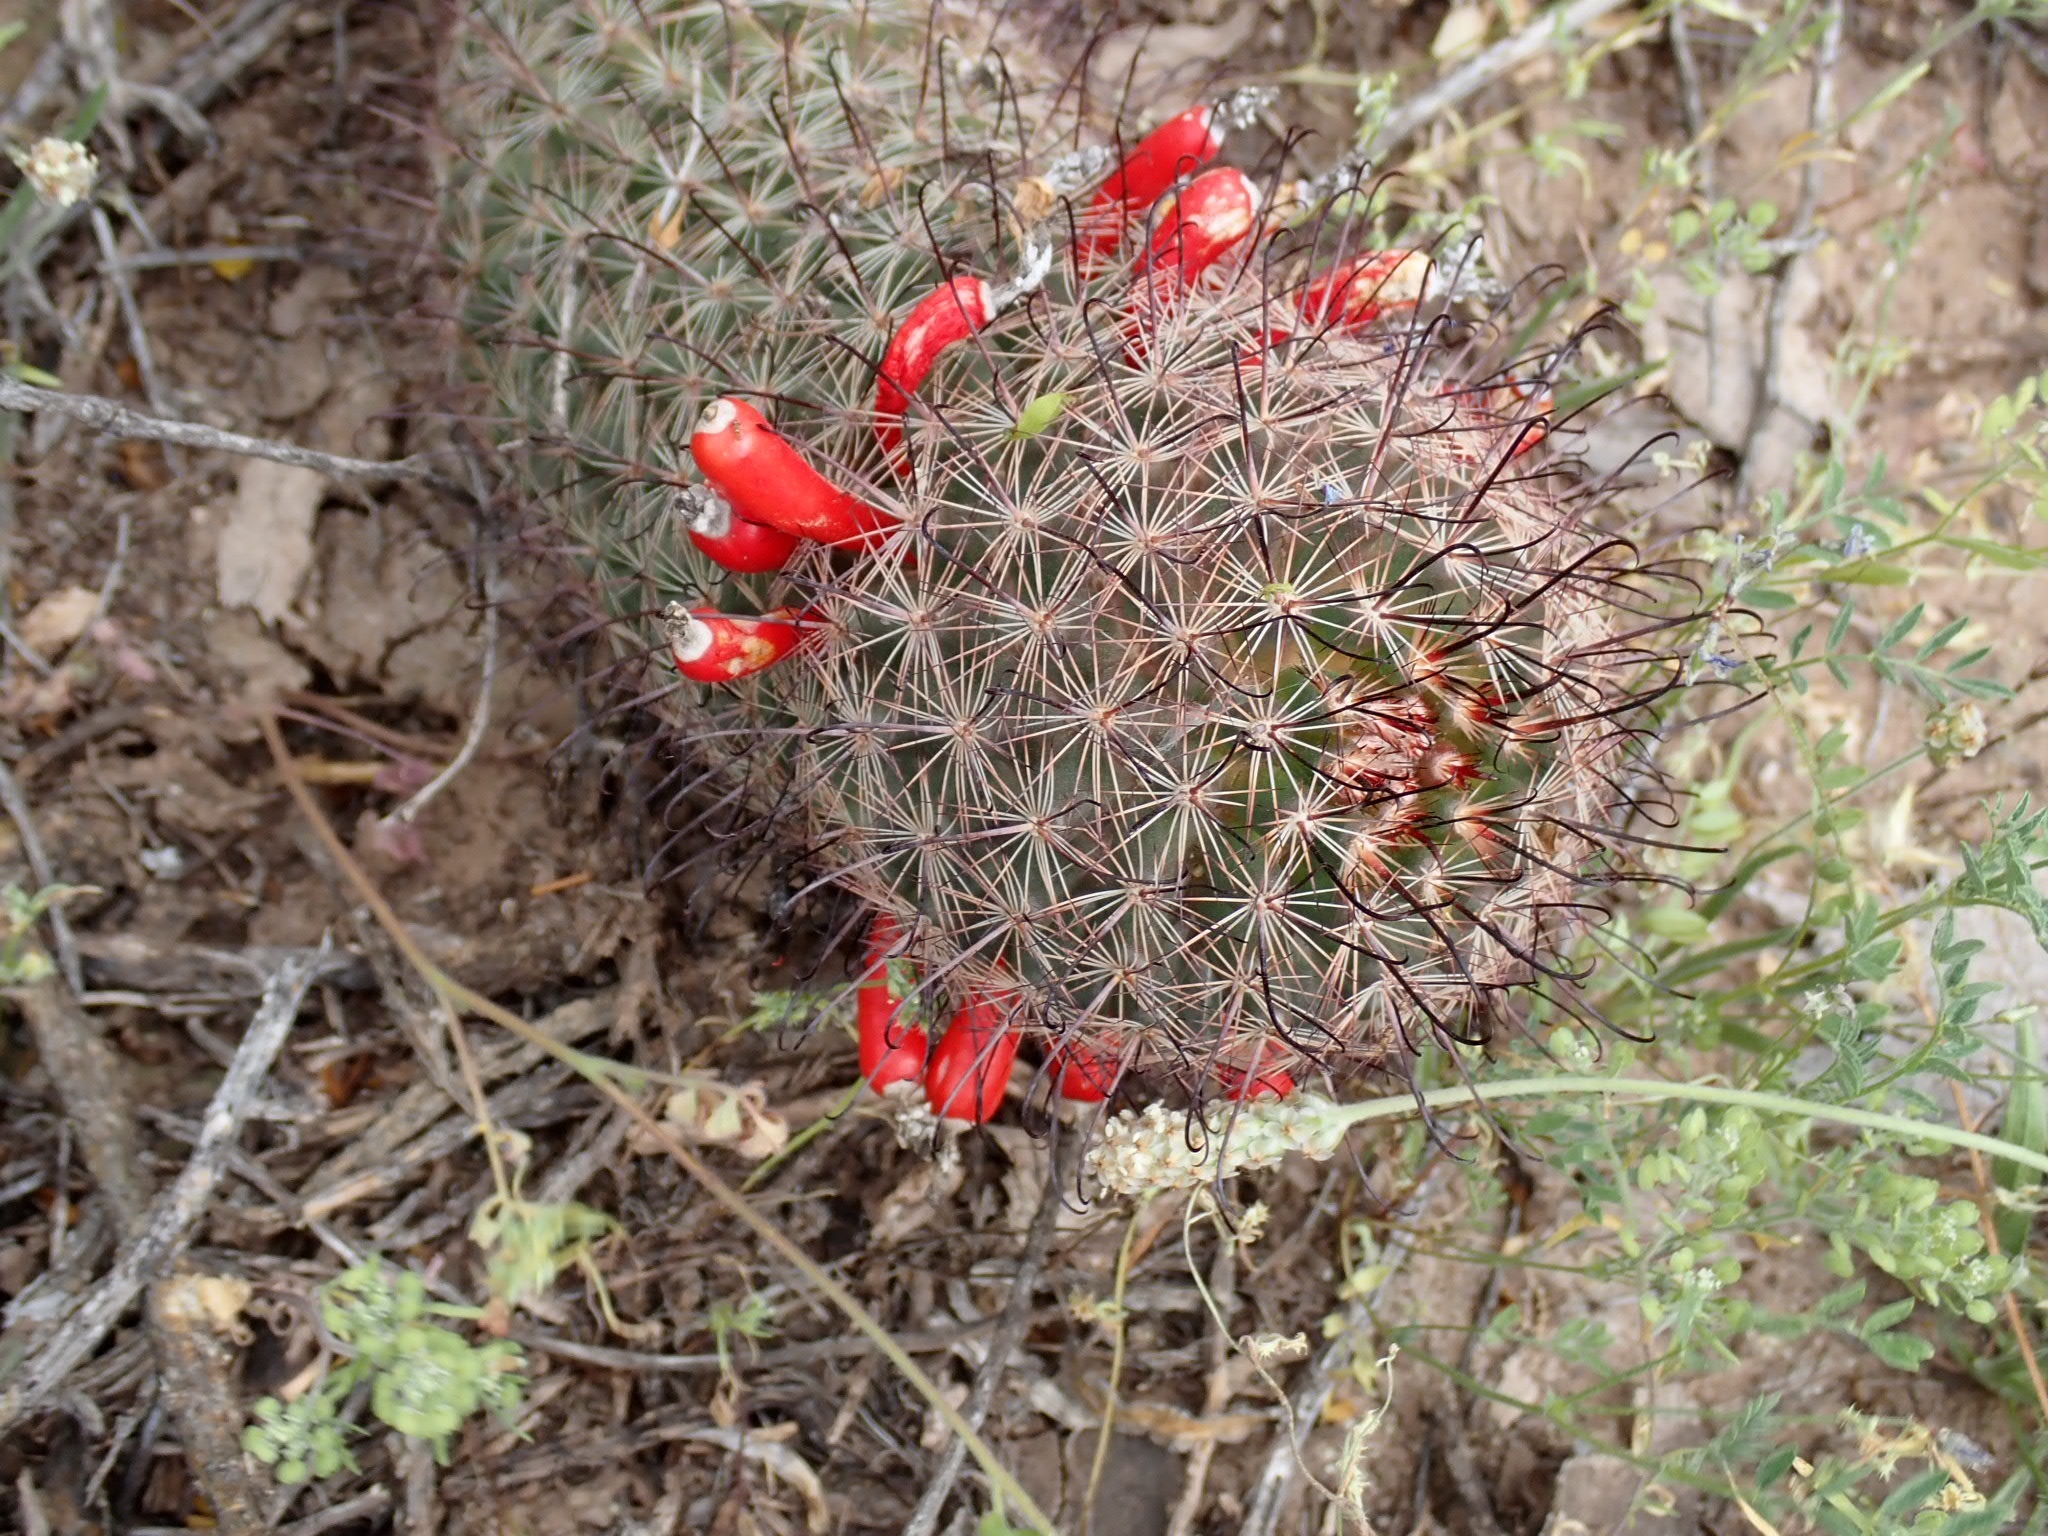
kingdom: Plantae
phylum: Tracheophyta
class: Magnoliopsida
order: Caryophyllales
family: Cactaceae
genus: Cochemiea
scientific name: Cochemiea grahamii
